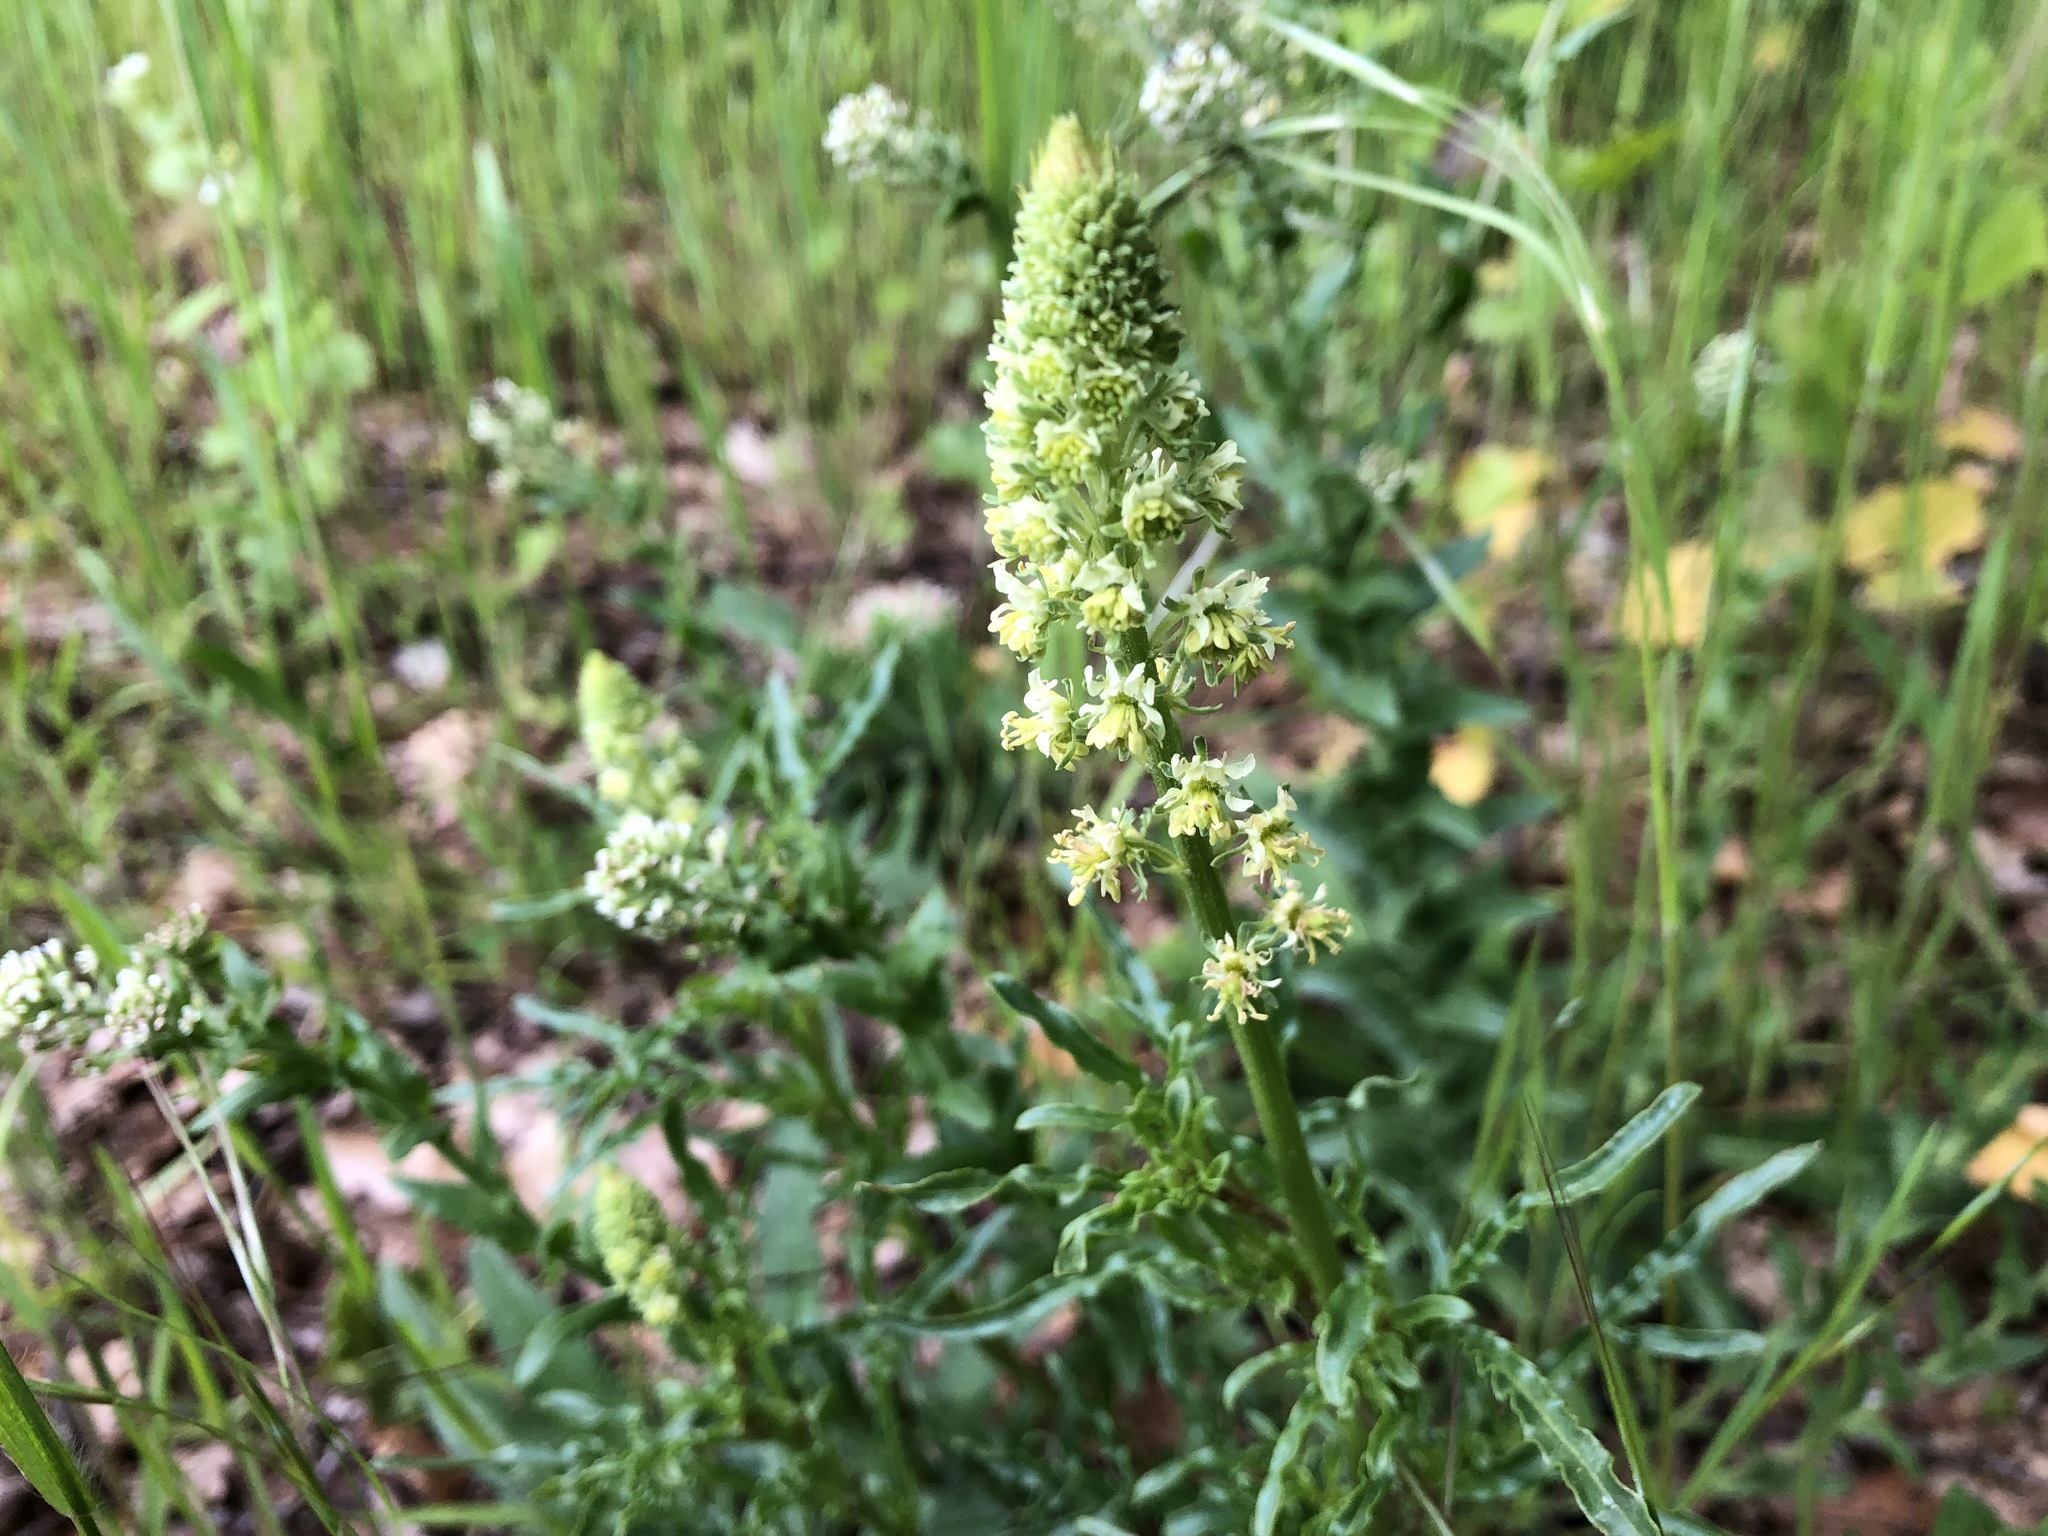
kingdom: Plantae
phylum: Tracheophyta
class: Magnoliopsida
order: Brassicales
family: Resedaceae
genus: Reseda
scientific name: Reseda lutea
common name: Wild mignonette
